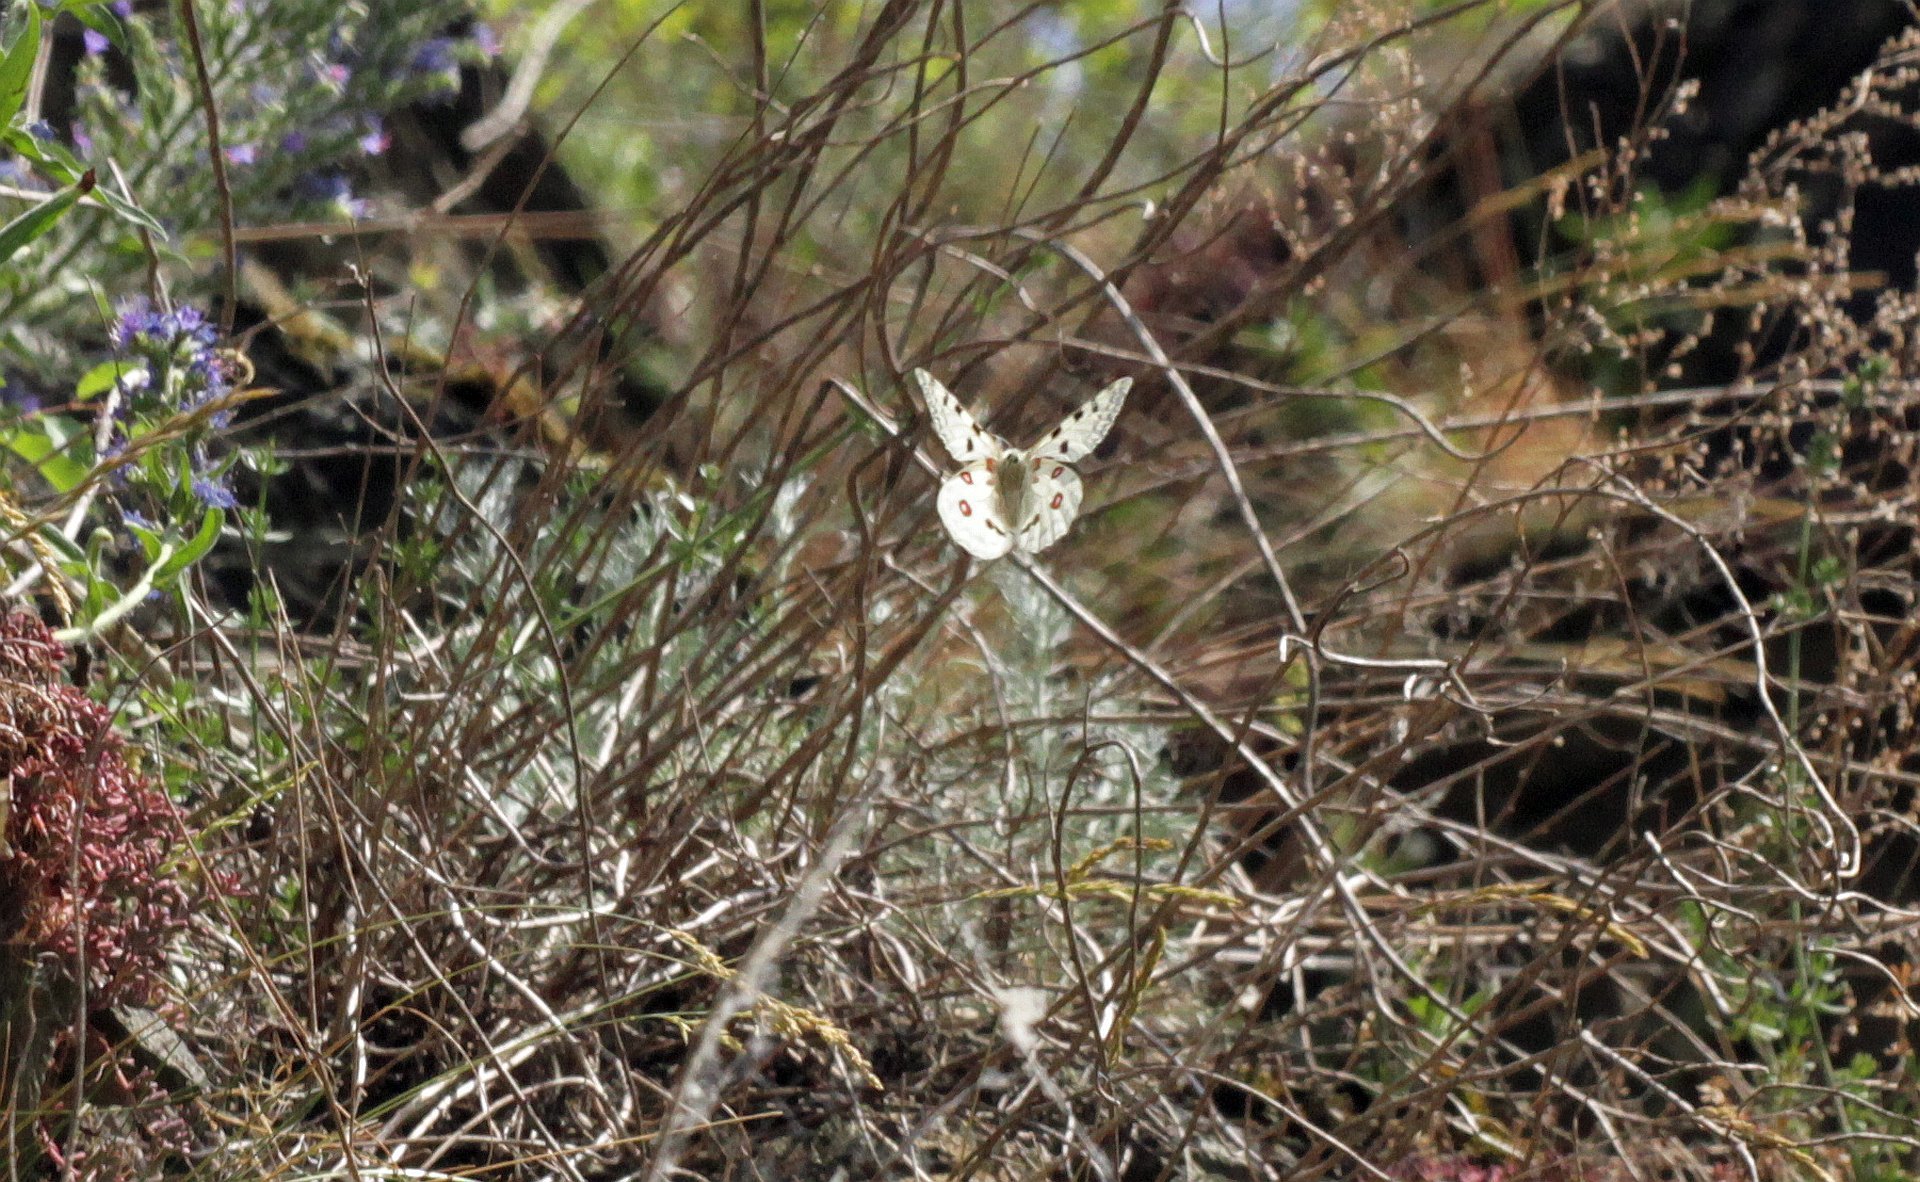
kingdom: Animalia
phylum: Arthropoda
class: Insecta
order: Lepidoptera
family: Papilionidae
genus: Parnassius
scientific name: Parnassius apollo
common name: Apollo
